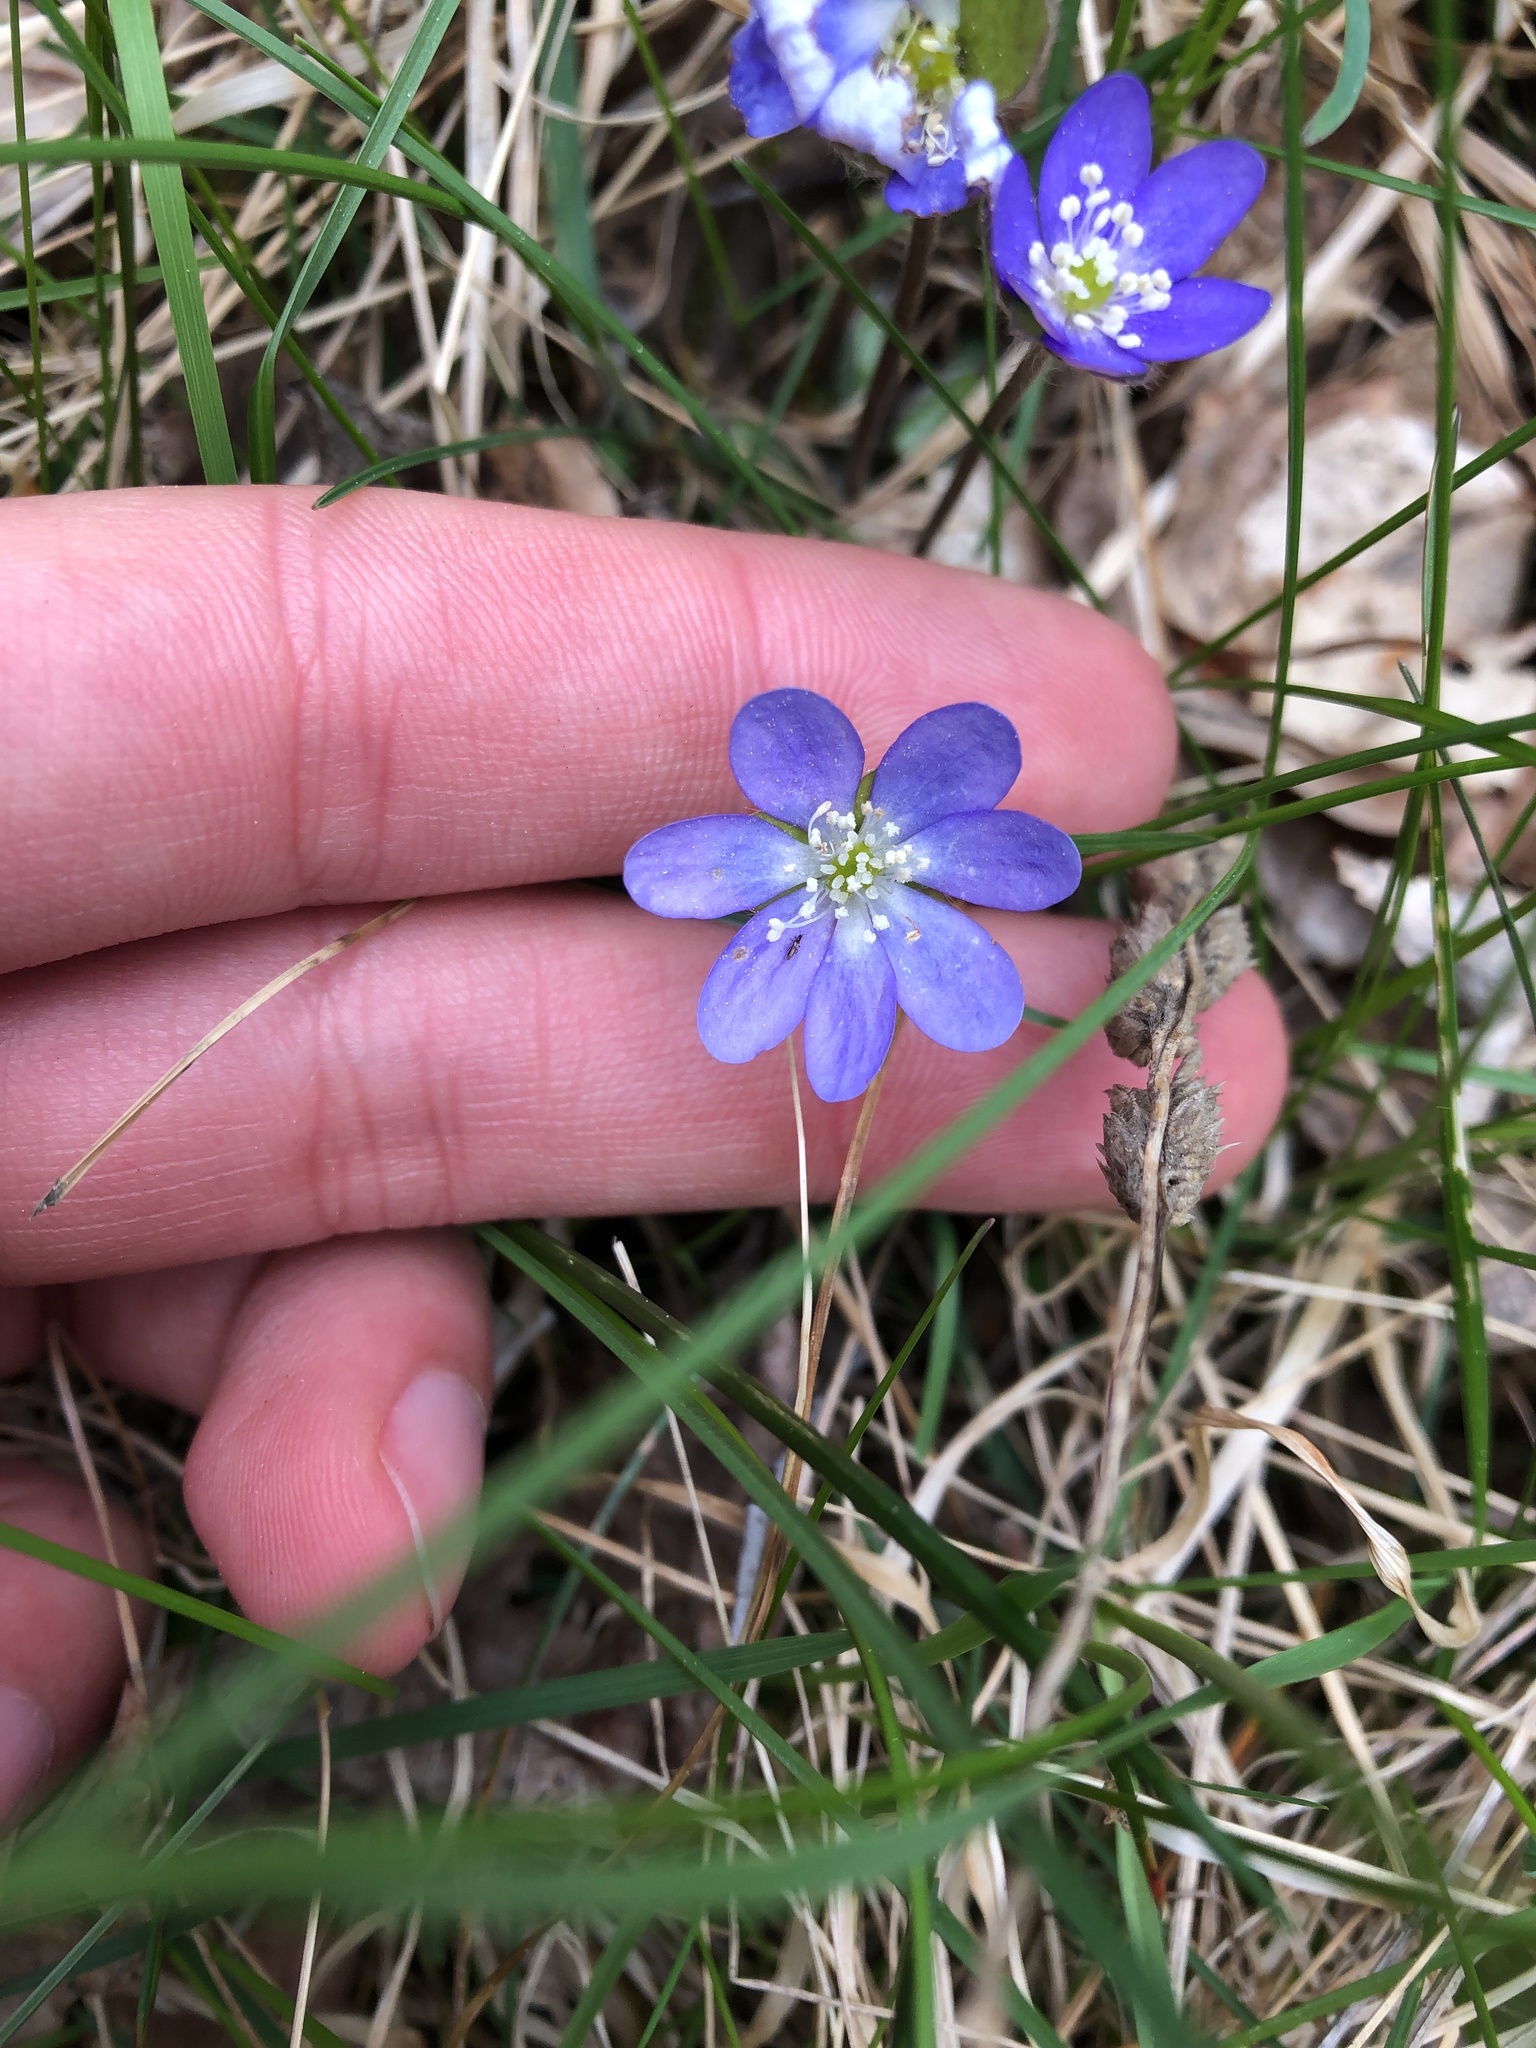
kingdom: Plantae
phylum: Tracheophyta
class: Magnoliopsida
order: Ranunculales
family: Ranunculaceae
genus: Hepatica
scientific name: Hepatica nobilis
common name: Liverleaf
